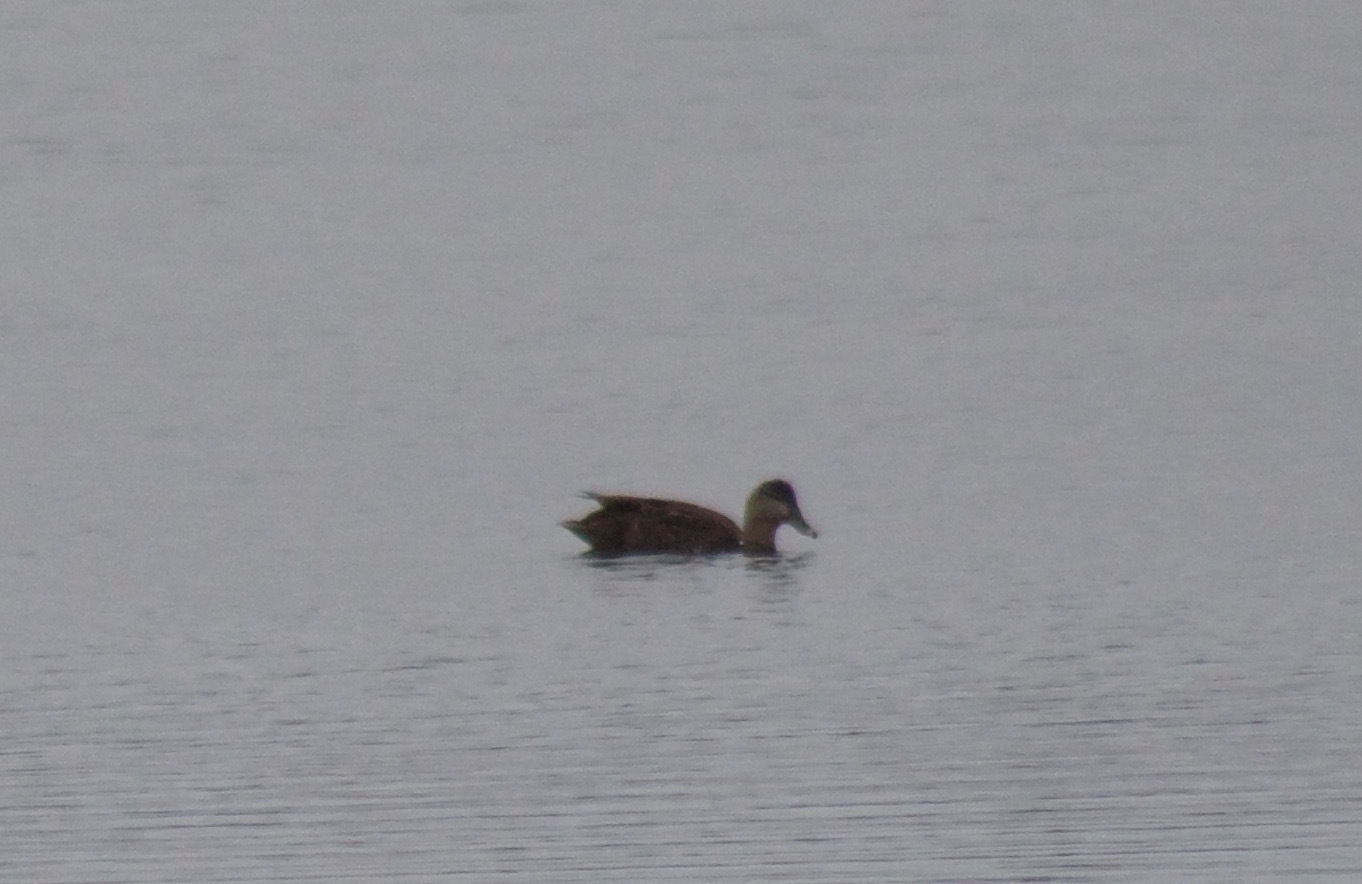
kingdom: Animalia
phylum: Chordata
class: Aves
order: Anseriformes
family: Anatidae
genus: Anas
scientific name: Anas rubripes
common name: American black duck
